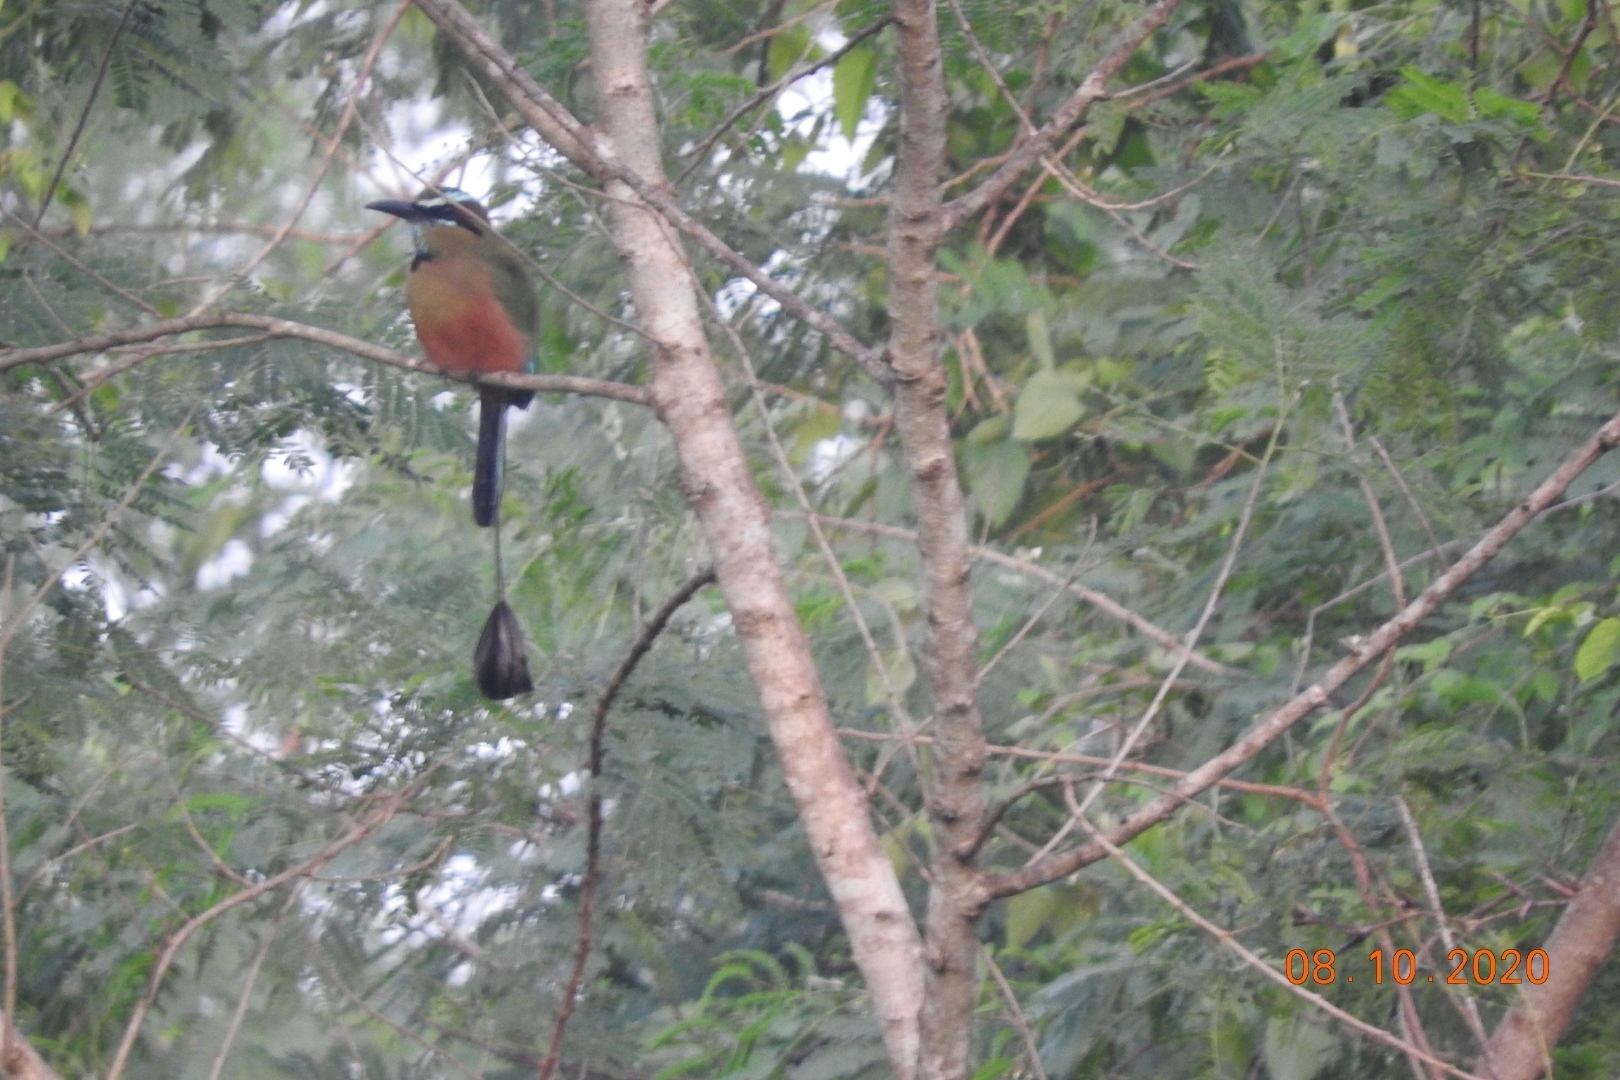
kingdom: Animalia
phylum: Chordata
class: Aves
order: Coraciiformes
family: Momotidae
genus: Eumomota
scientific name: Eumomota superciliosa
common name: Turquoise-browed motmot
